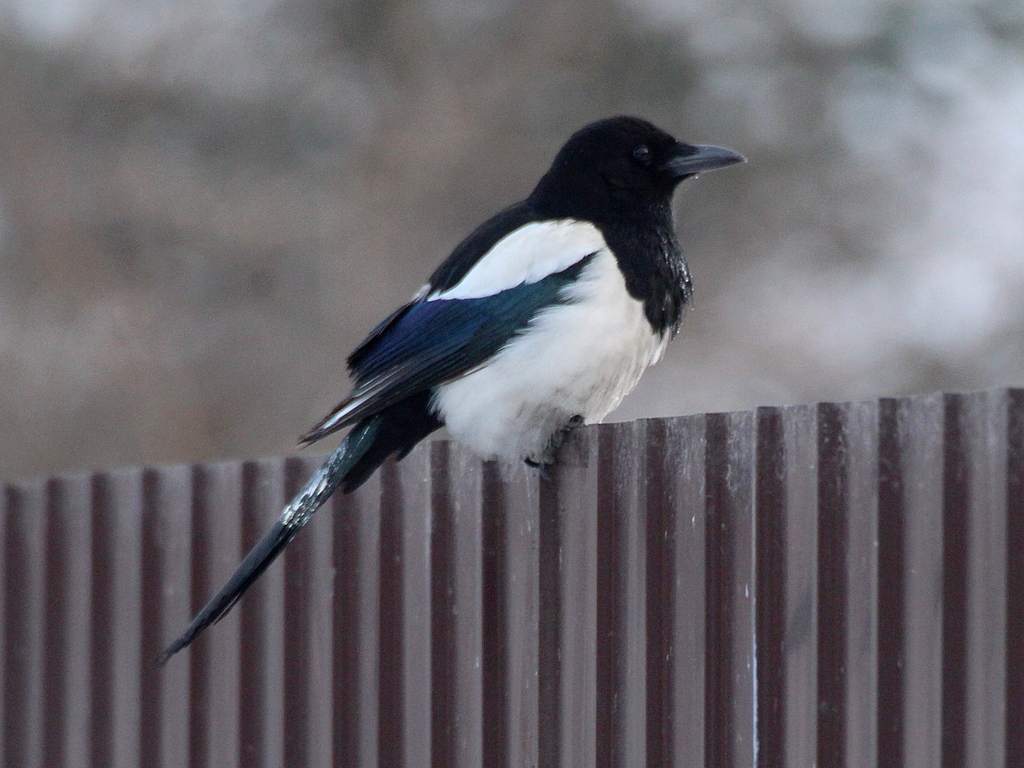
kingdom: Animalia
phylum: Chordata
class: Aves
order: Passeriformes
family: Corvidae
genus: Pica
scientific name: Pica serica
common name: Oriental magpie
